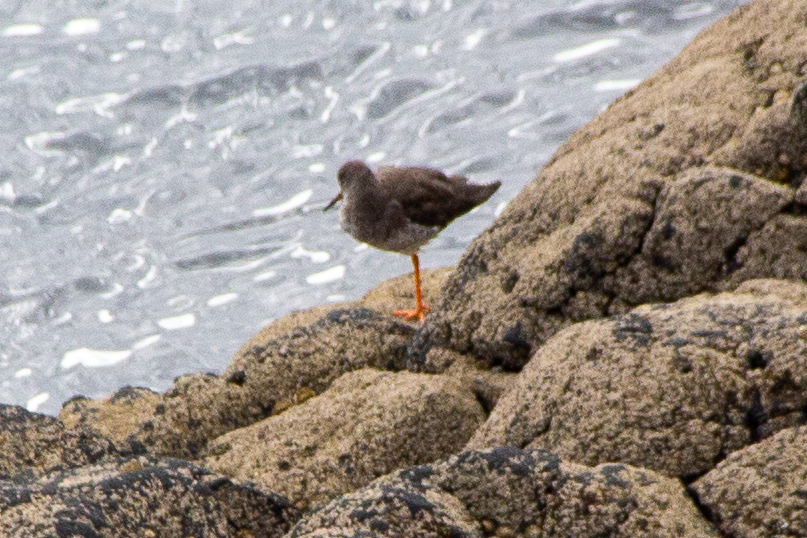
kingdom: Animalia
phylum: Chordata
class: Aves
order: Charadriiformes
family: Scolopacidae
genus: Tringa
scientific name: Tringa totanus
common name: Common redshank
